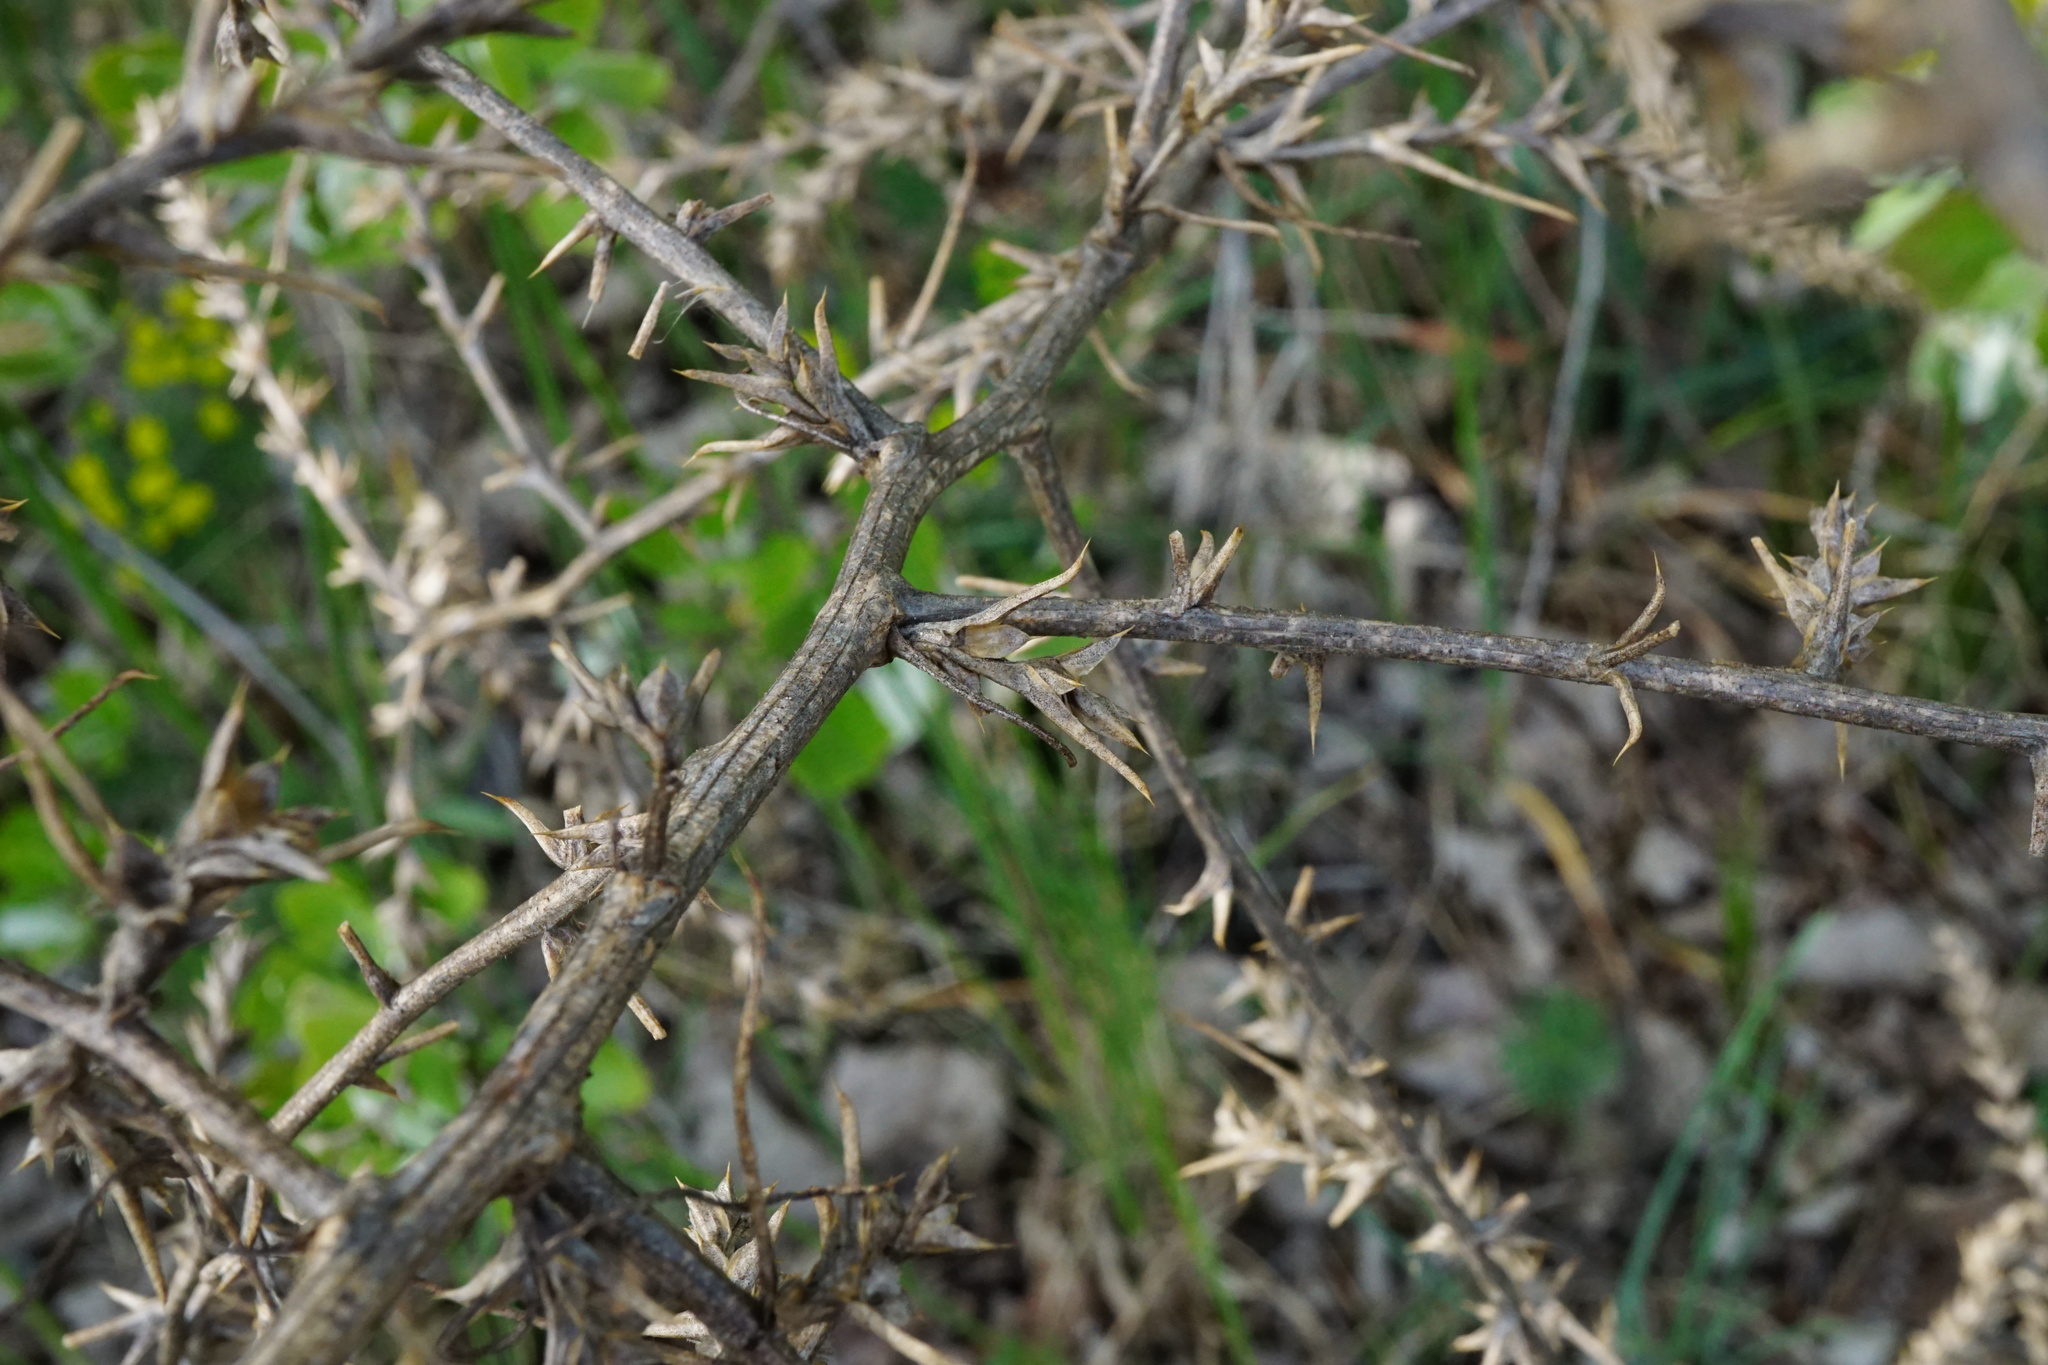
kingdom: Plantae
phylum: Tracheophyta
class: Magnoliopsida
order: Caryophyllales
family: Amaranthaceae
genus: Salsola
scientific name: Salsola tragus
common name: Prickly russian thistle
